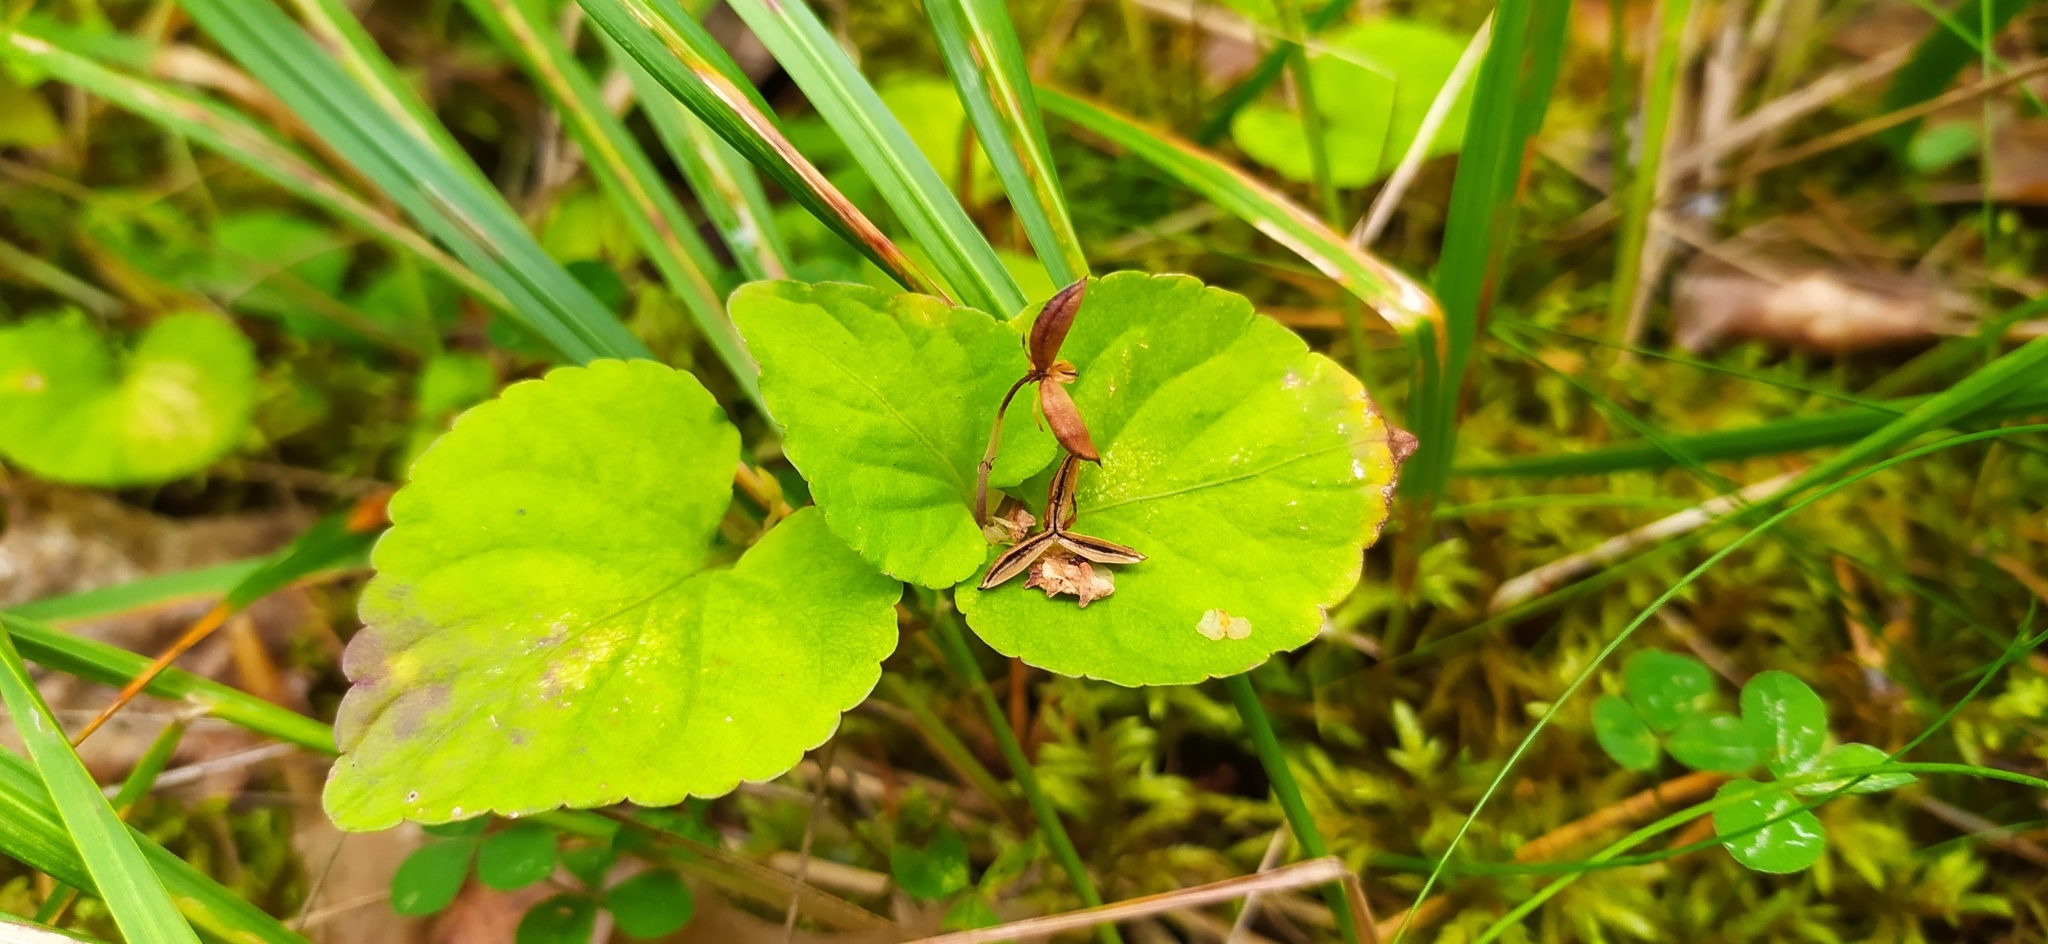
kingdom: Plantae
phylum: Tracheophyta
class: Magnoliopsida
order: Malpighiales
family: Violaceae
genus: Viola
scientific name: Viola mirabilis
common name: Wonder violet
